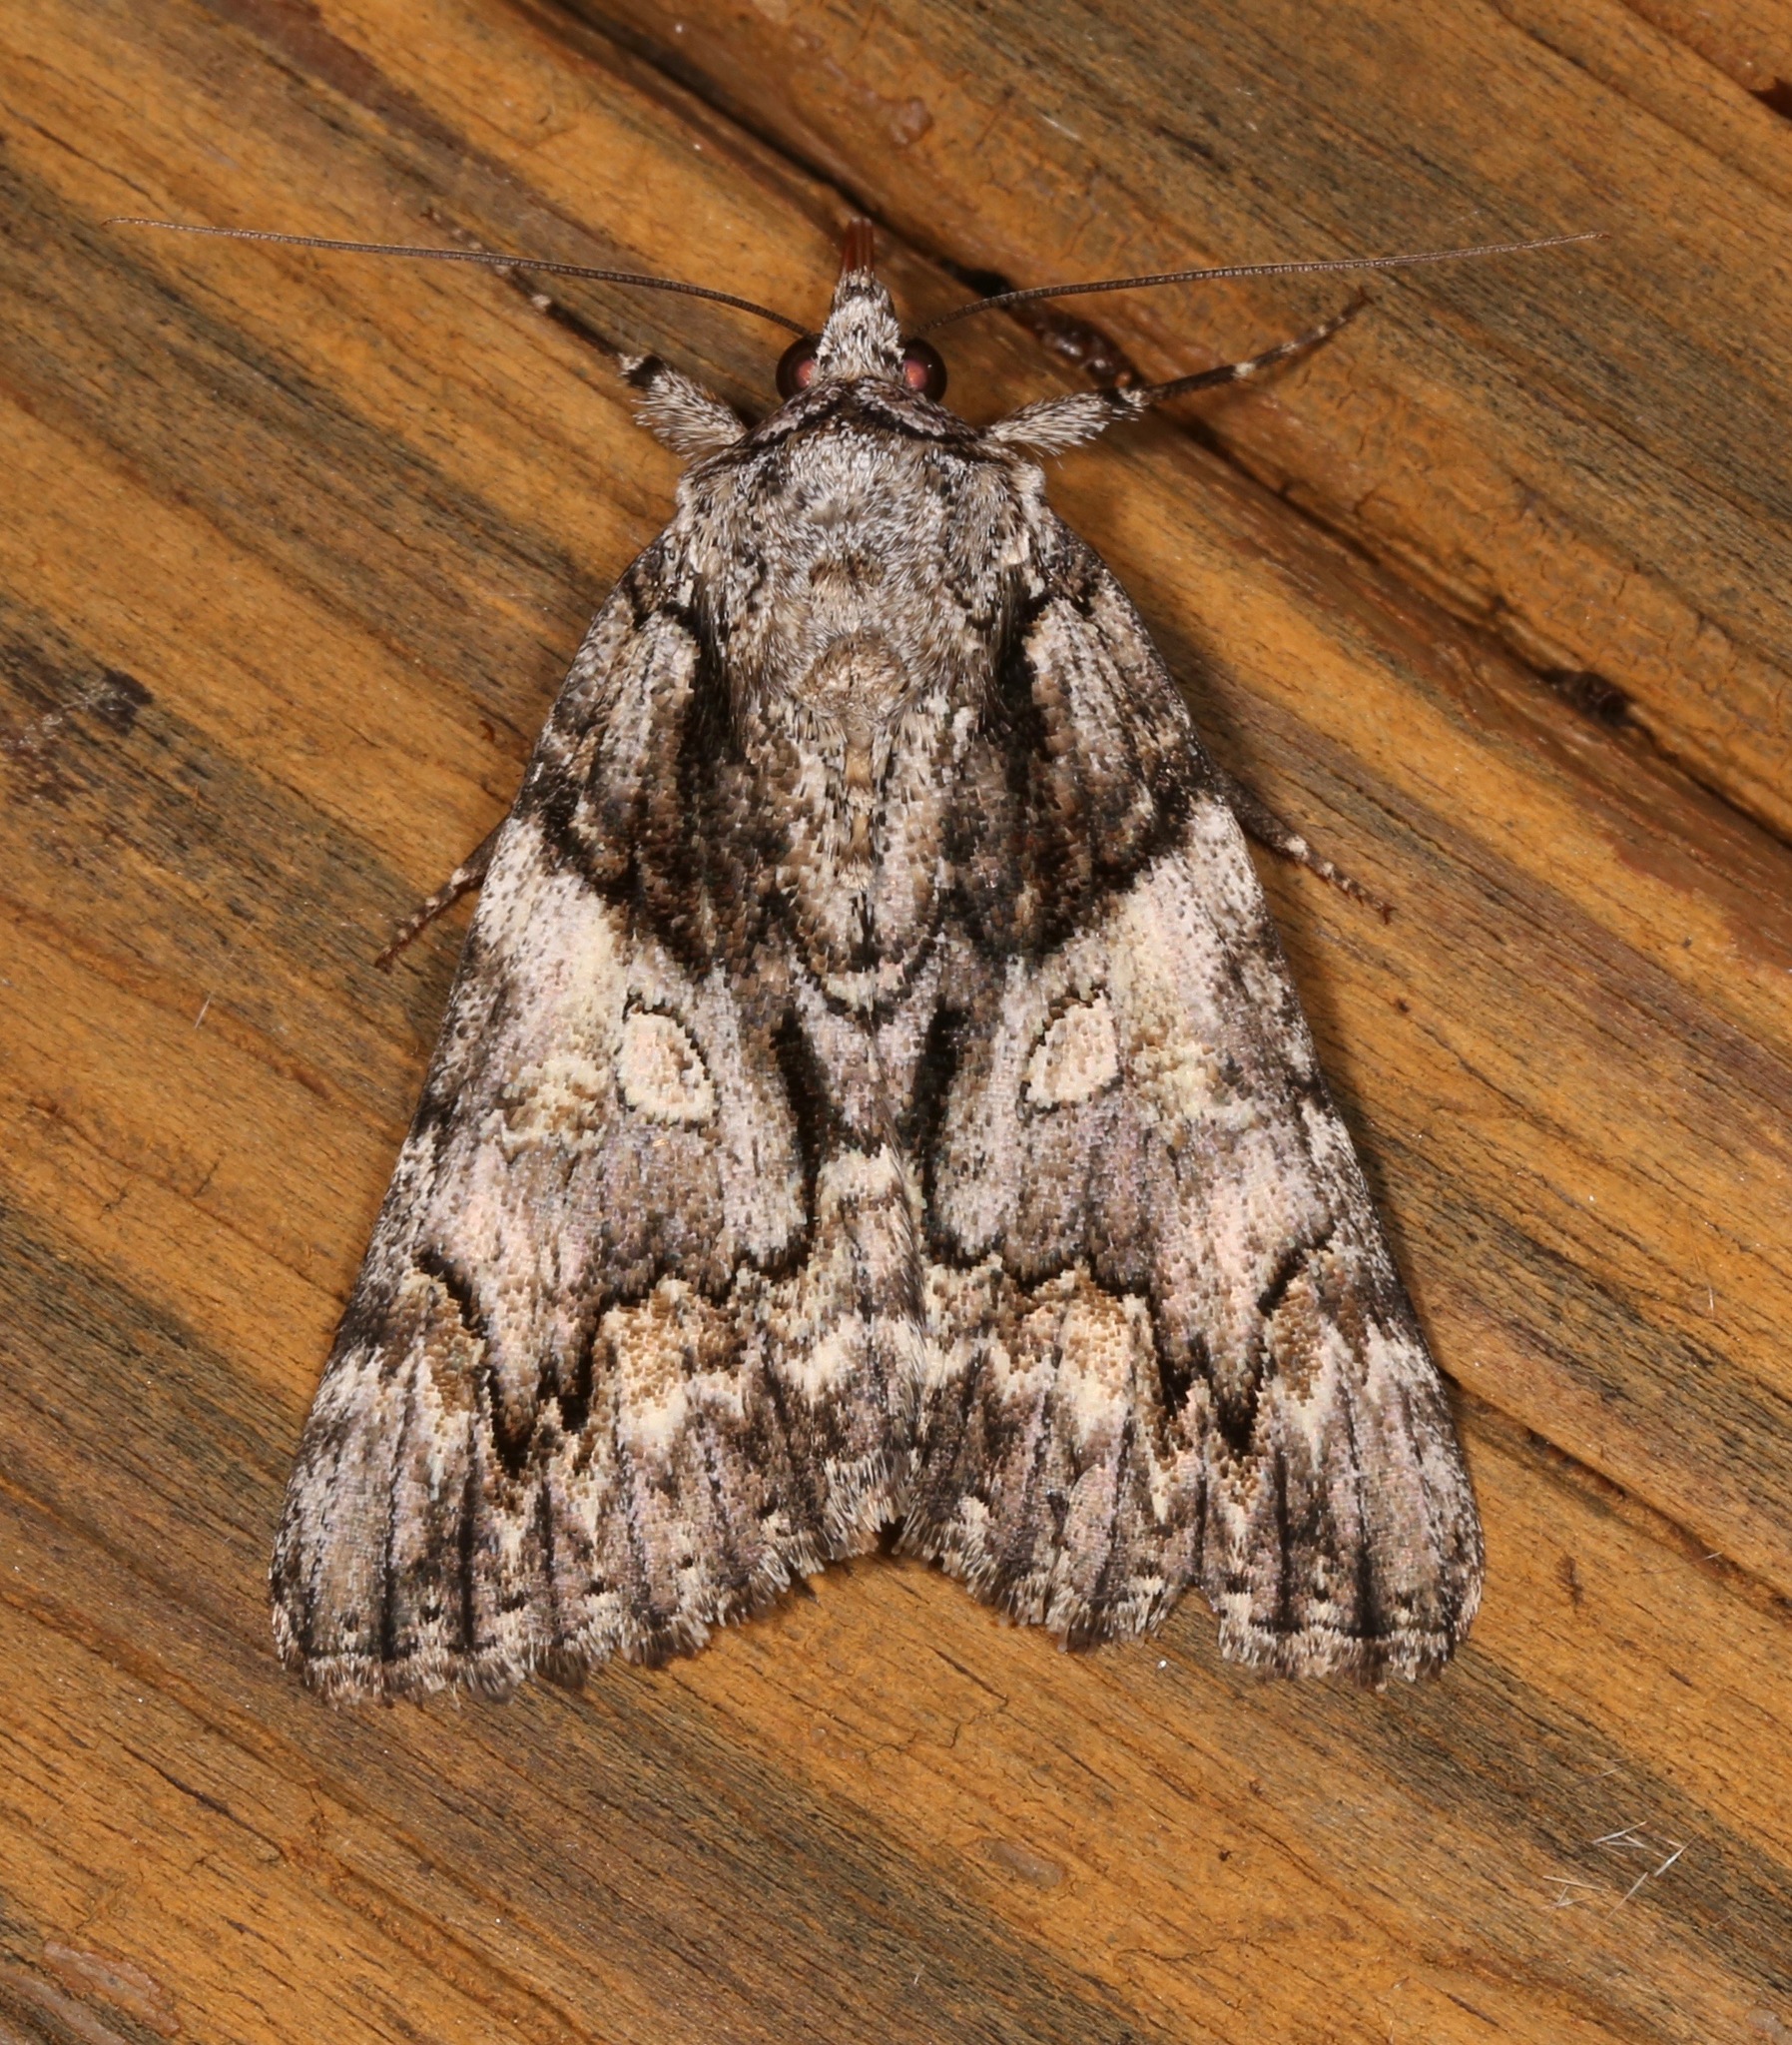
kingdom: Animalia
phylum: Arthropoda
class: Insecta
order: Lepidoptera
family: Erebidae
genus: Catocala
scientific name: Catocala verrilliana
